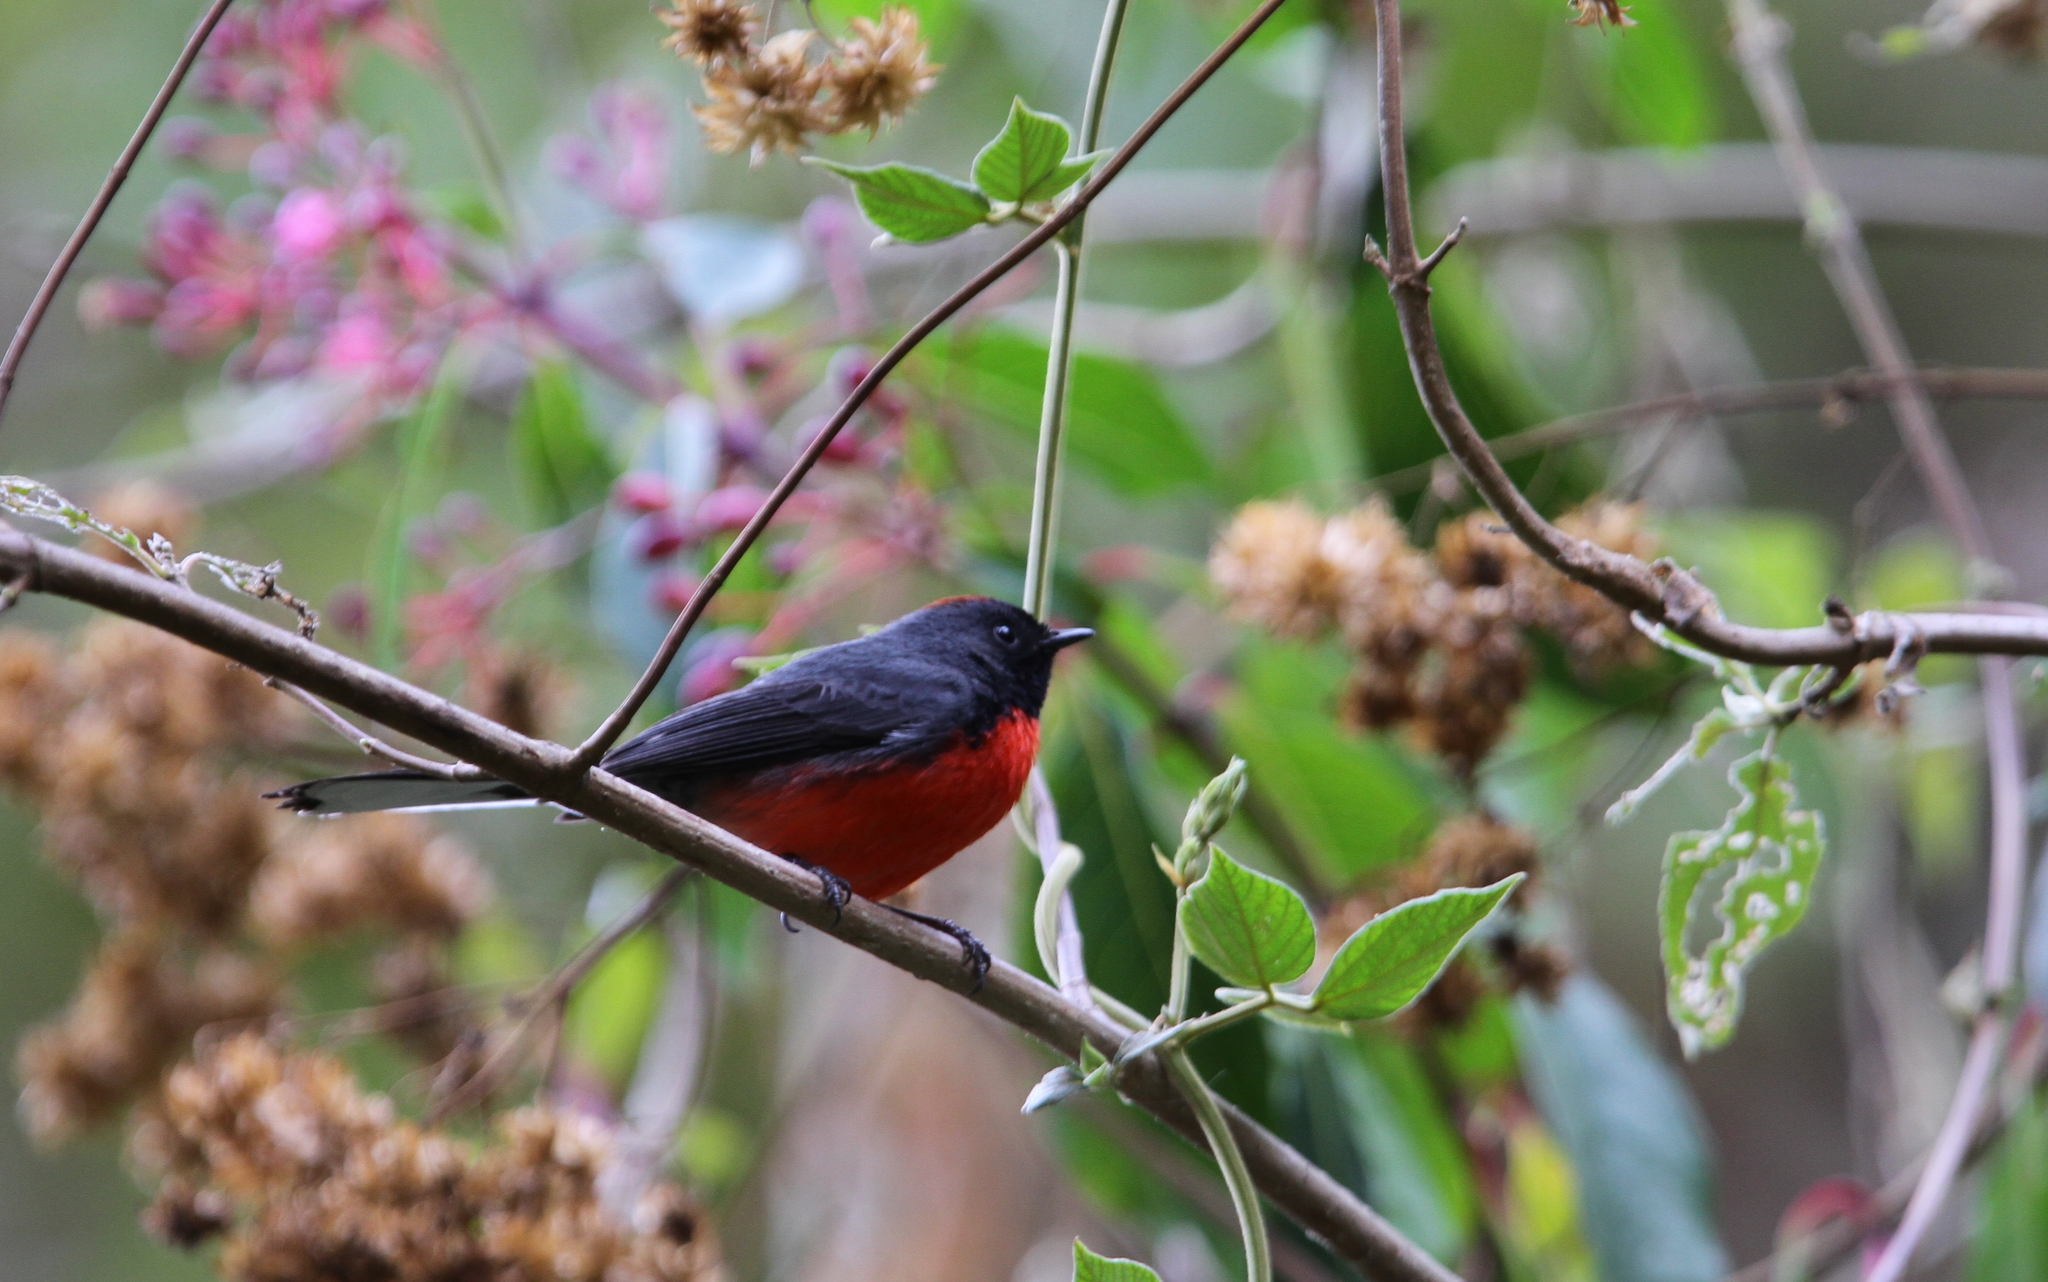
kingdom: Animalia
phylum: Chordata
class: Aves
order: Passeriformes
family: Parulidae
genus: Myioborus
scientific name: Myioborus miniatus
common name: Slate-throated redstart
